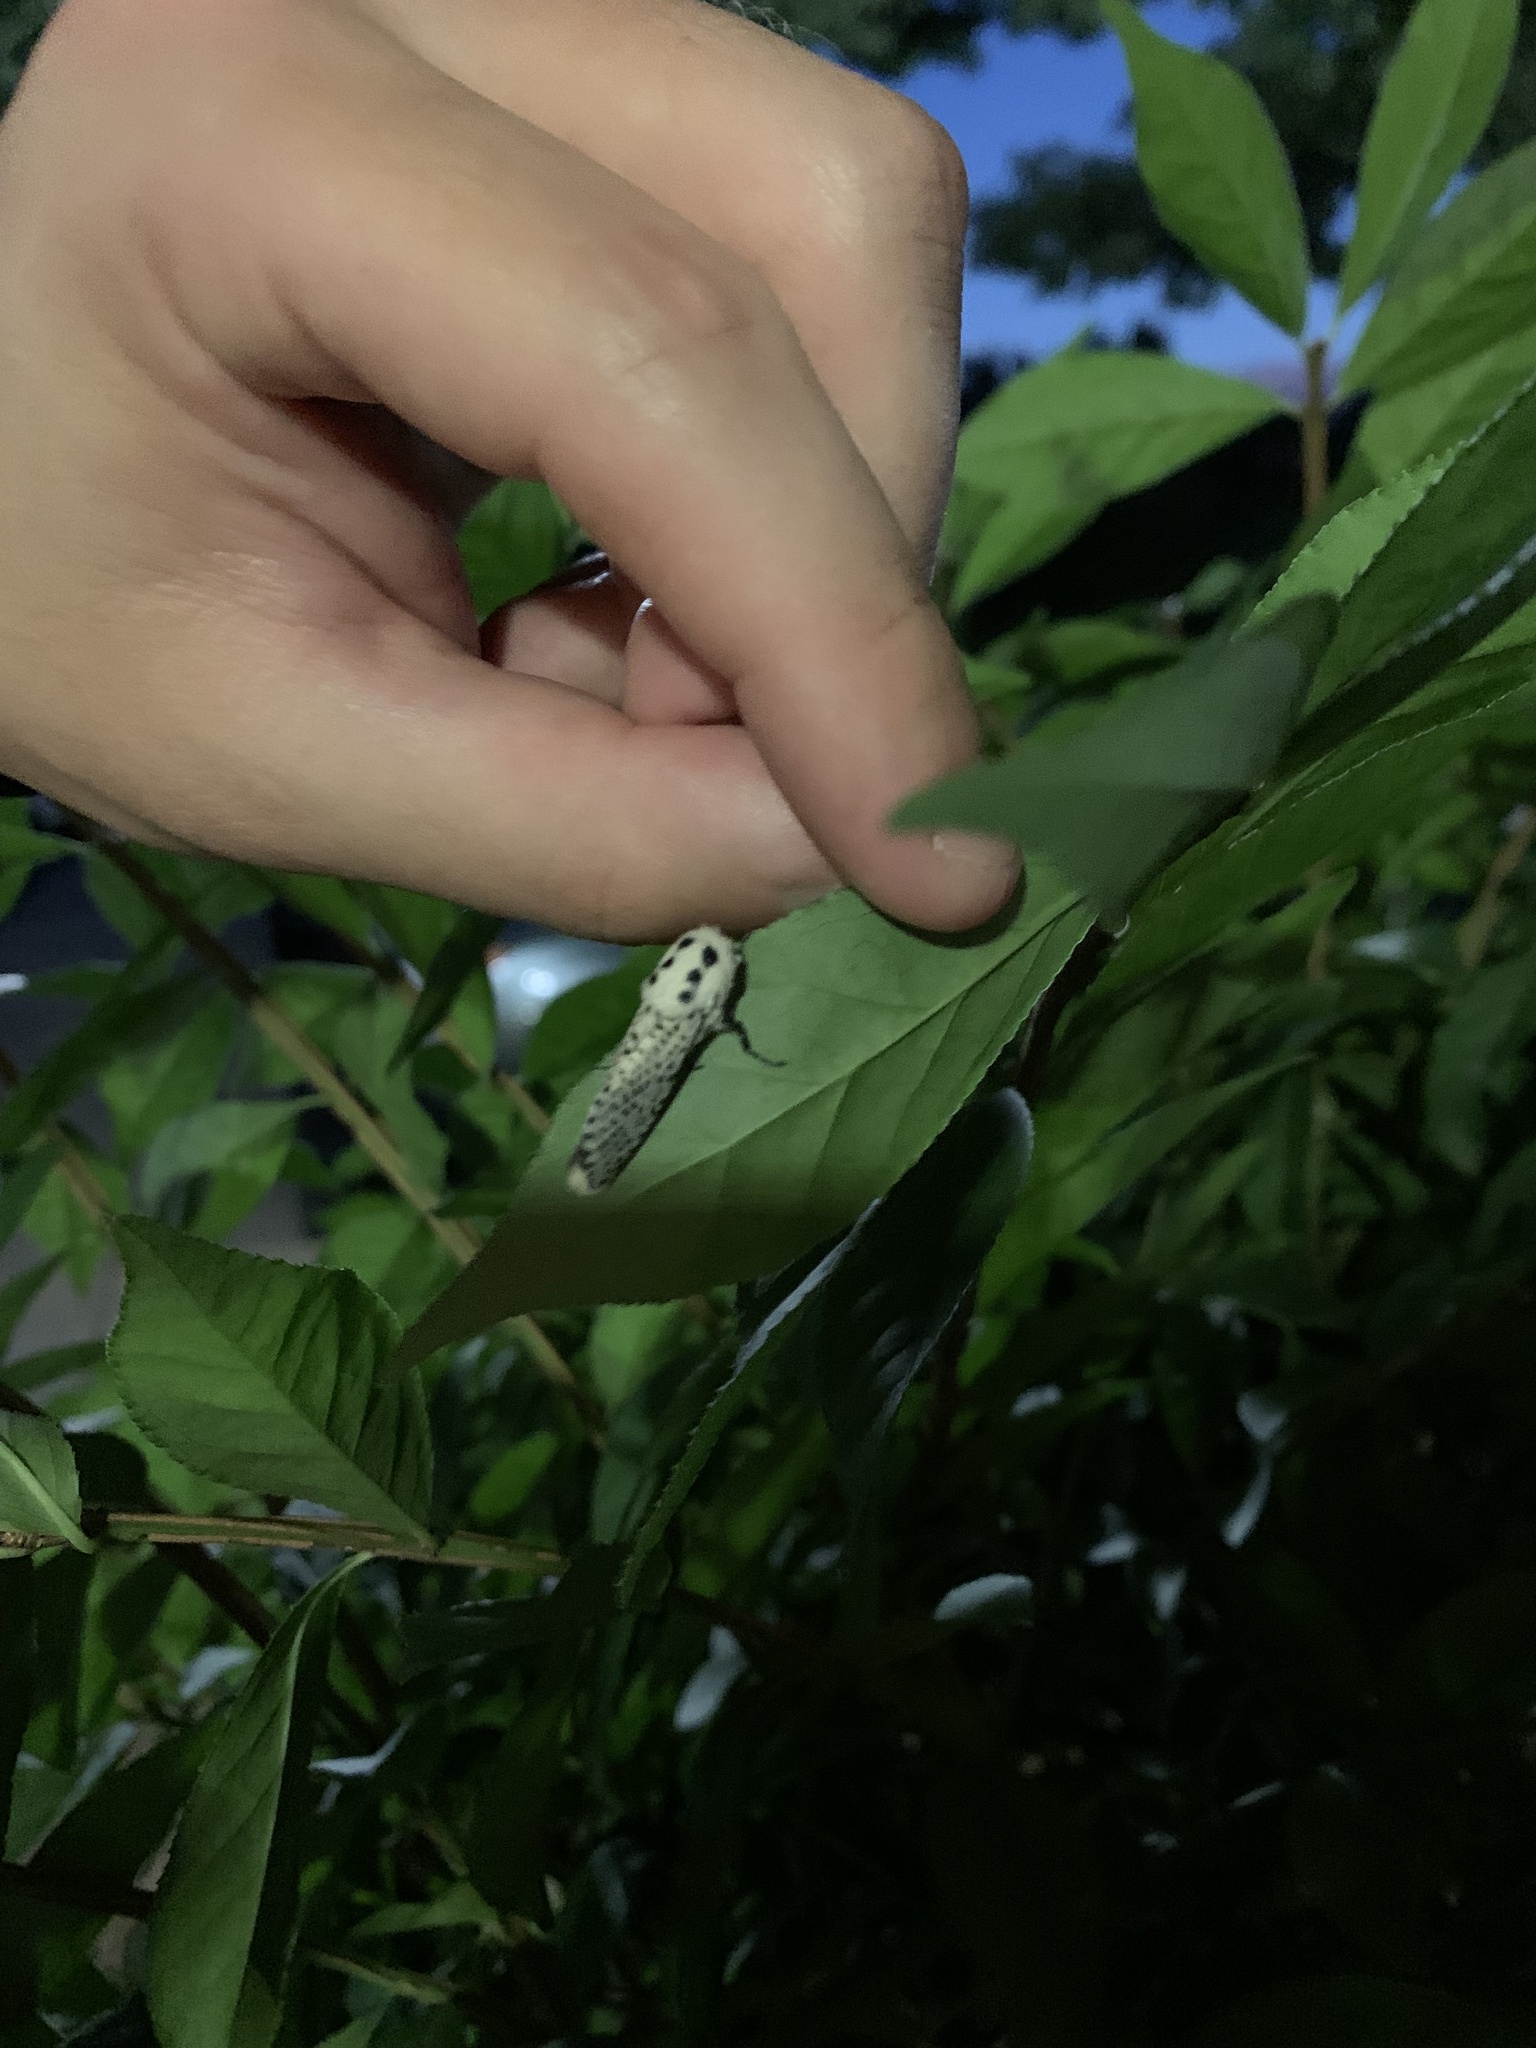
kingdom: Animalia
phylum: Arthropoda
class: Insecta
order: Lepidoptera
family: Cossidae
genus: Zeuzera
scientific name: Zeuzera pyrina
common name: Leopard moth
